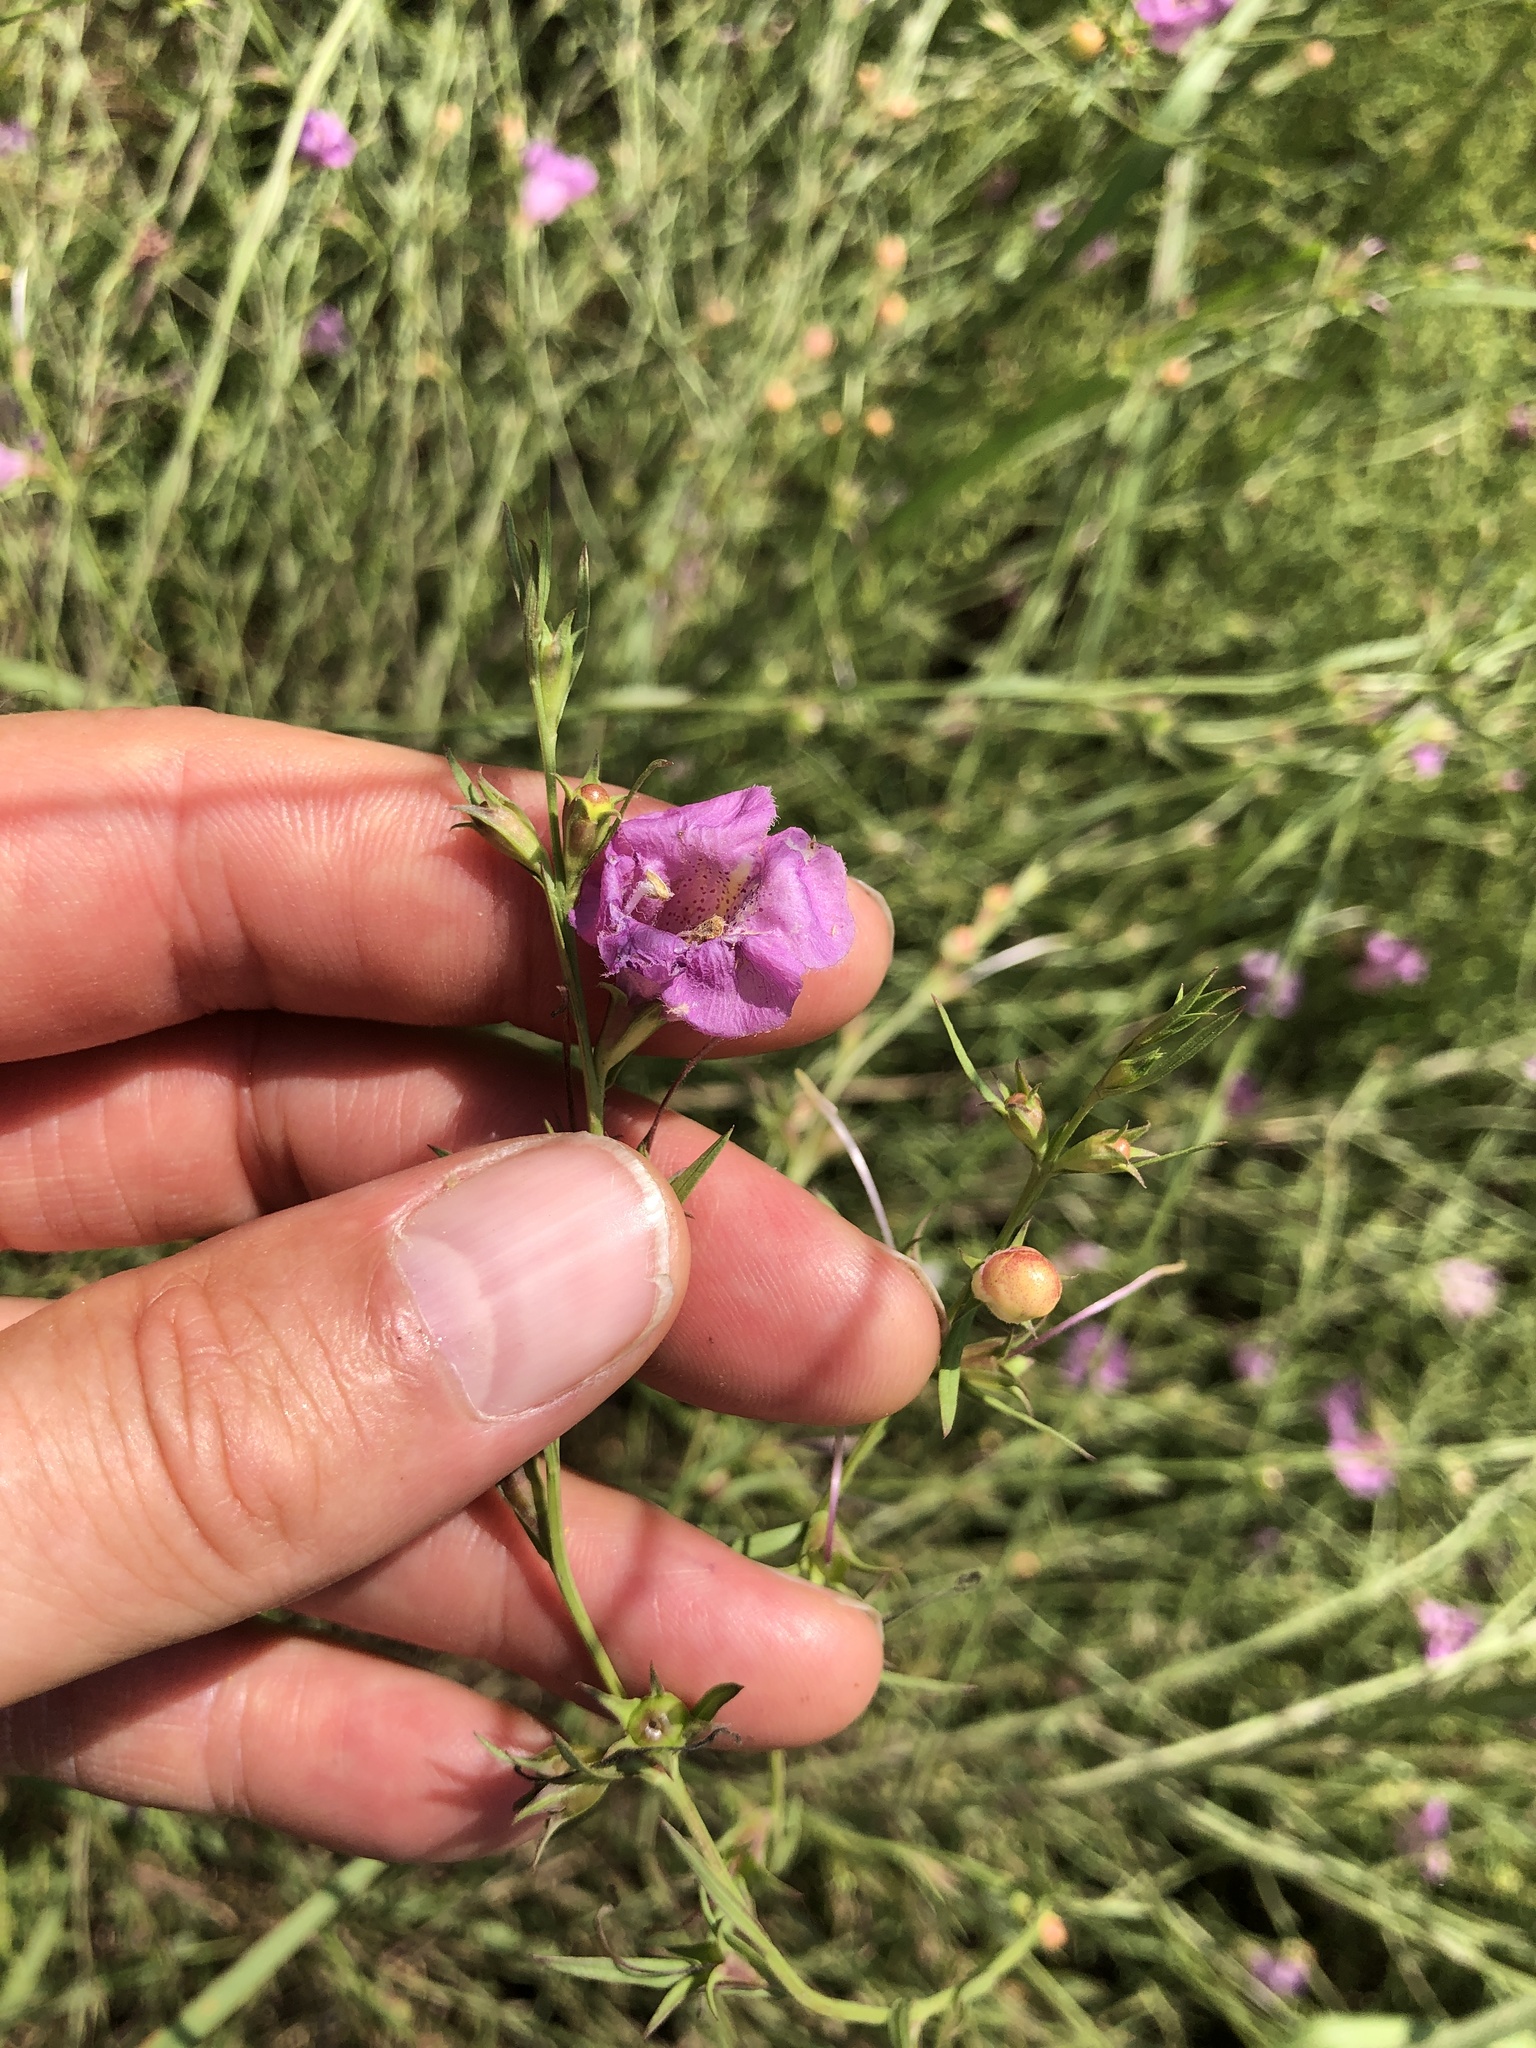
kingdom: Plantae
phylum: Tracheophyta
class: Magnoliopsida
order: Lamiales
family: Orobanchaceae
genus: Agalinis
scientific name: Agalinis heterophylla
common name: Prairie agalinis
